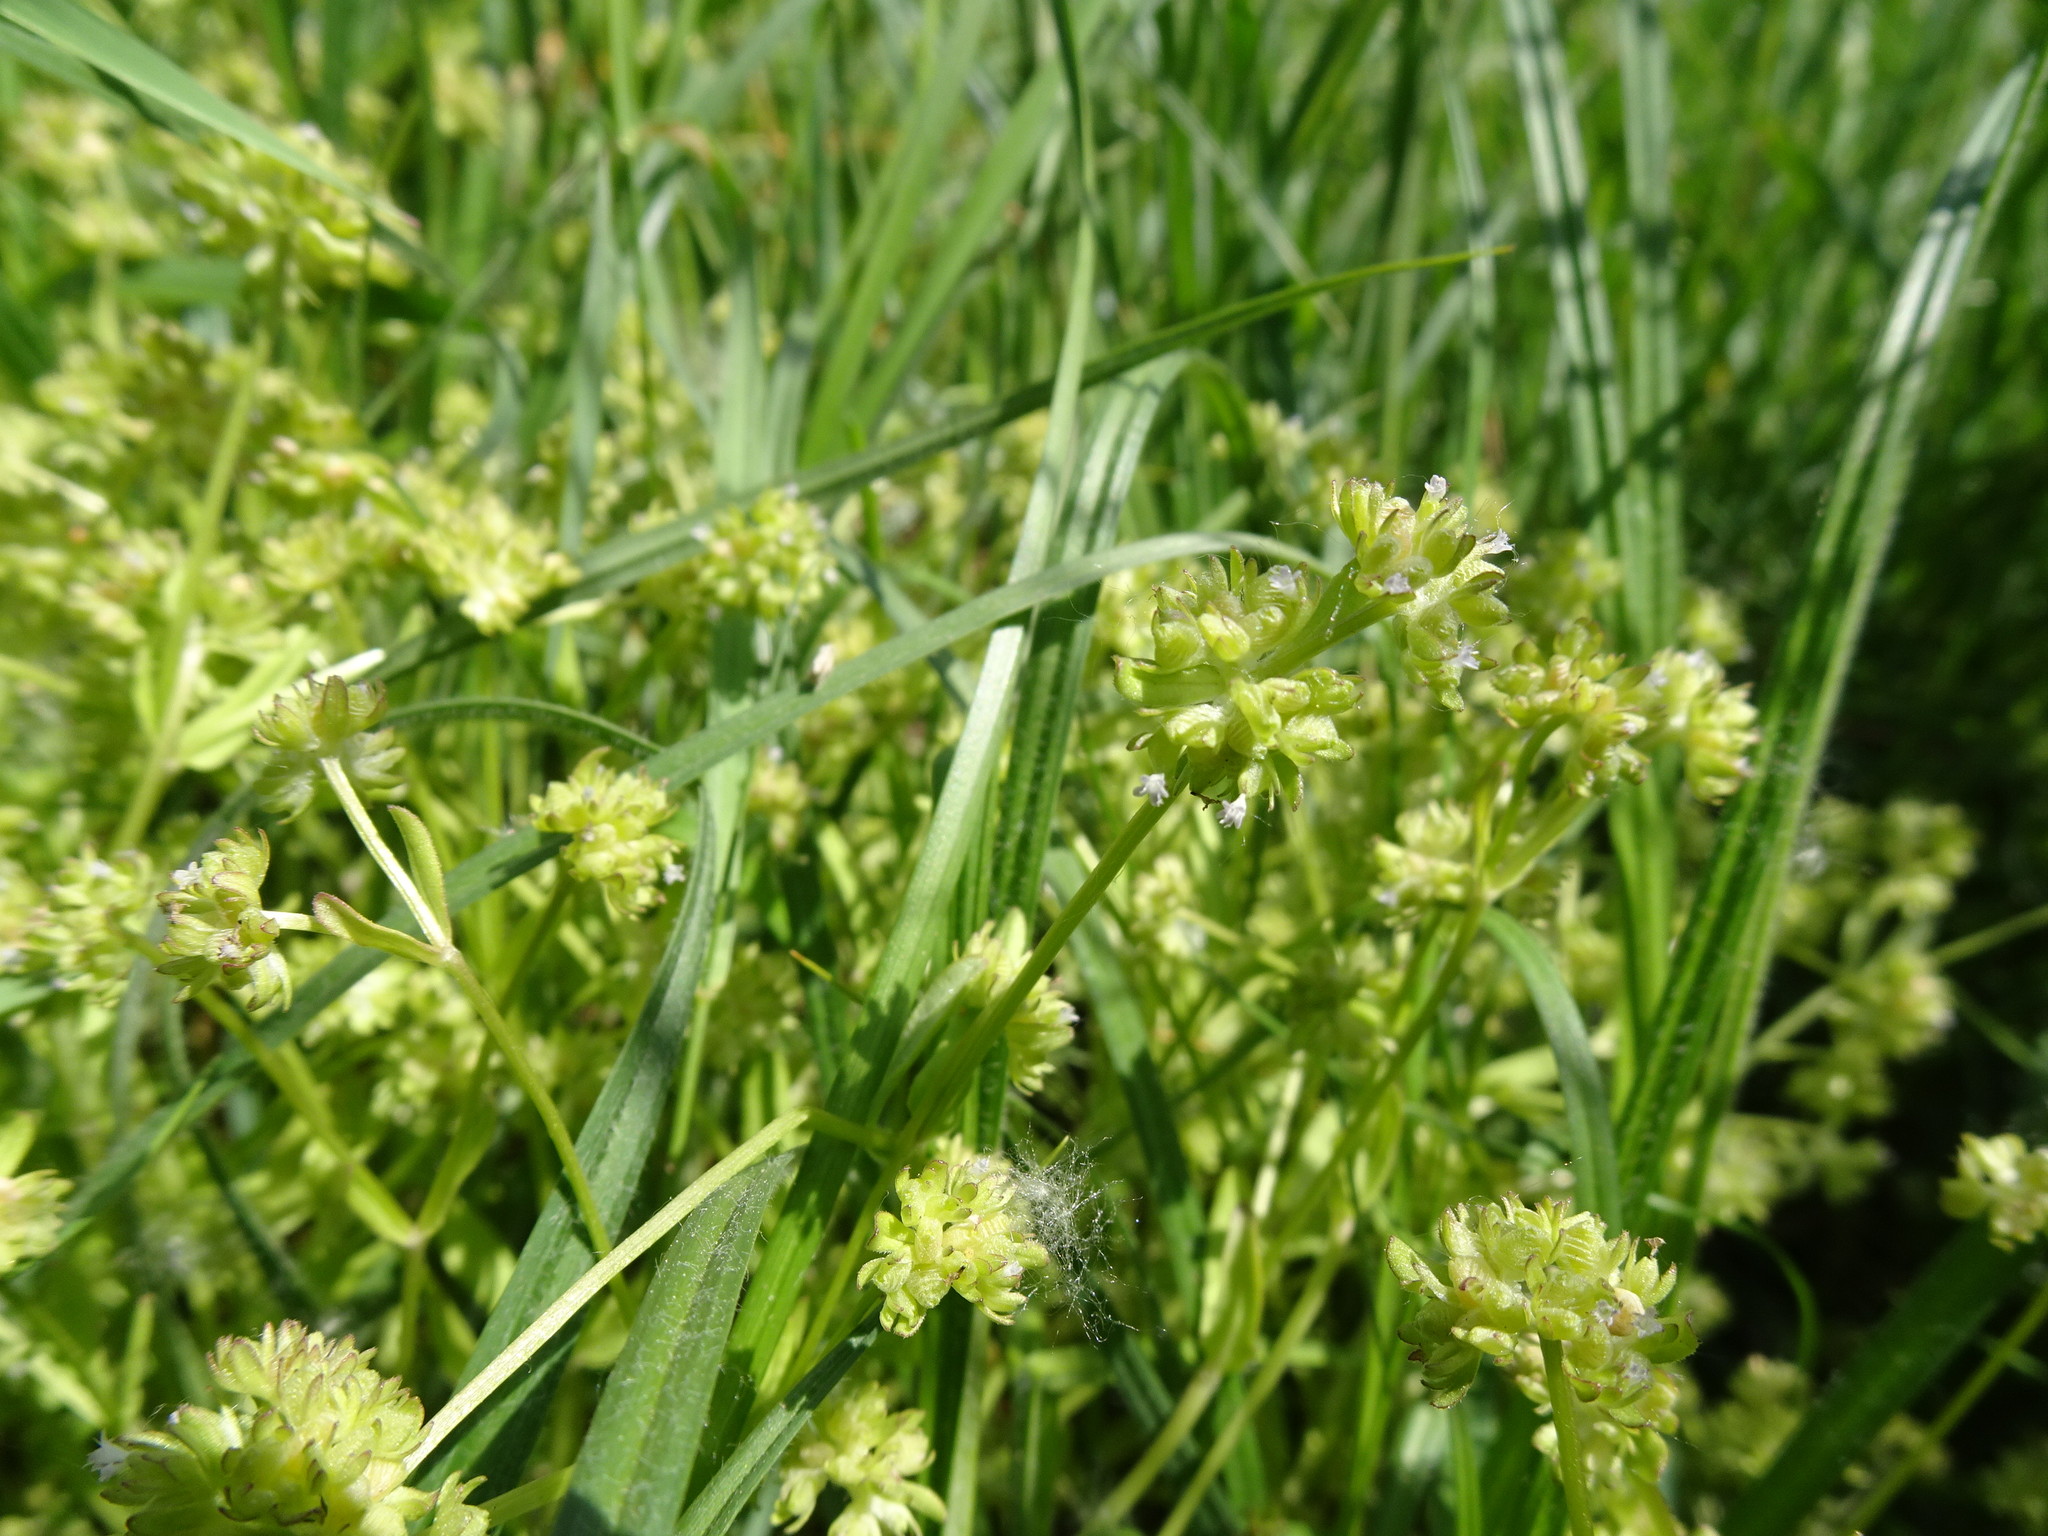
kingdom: Plantae
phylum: Tracheophyta
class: Magnoliopsida
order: Dipsacales
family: Caprifoliaceae
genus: Valerianella
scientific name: Valerianella locusta
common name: Common cornsalad
